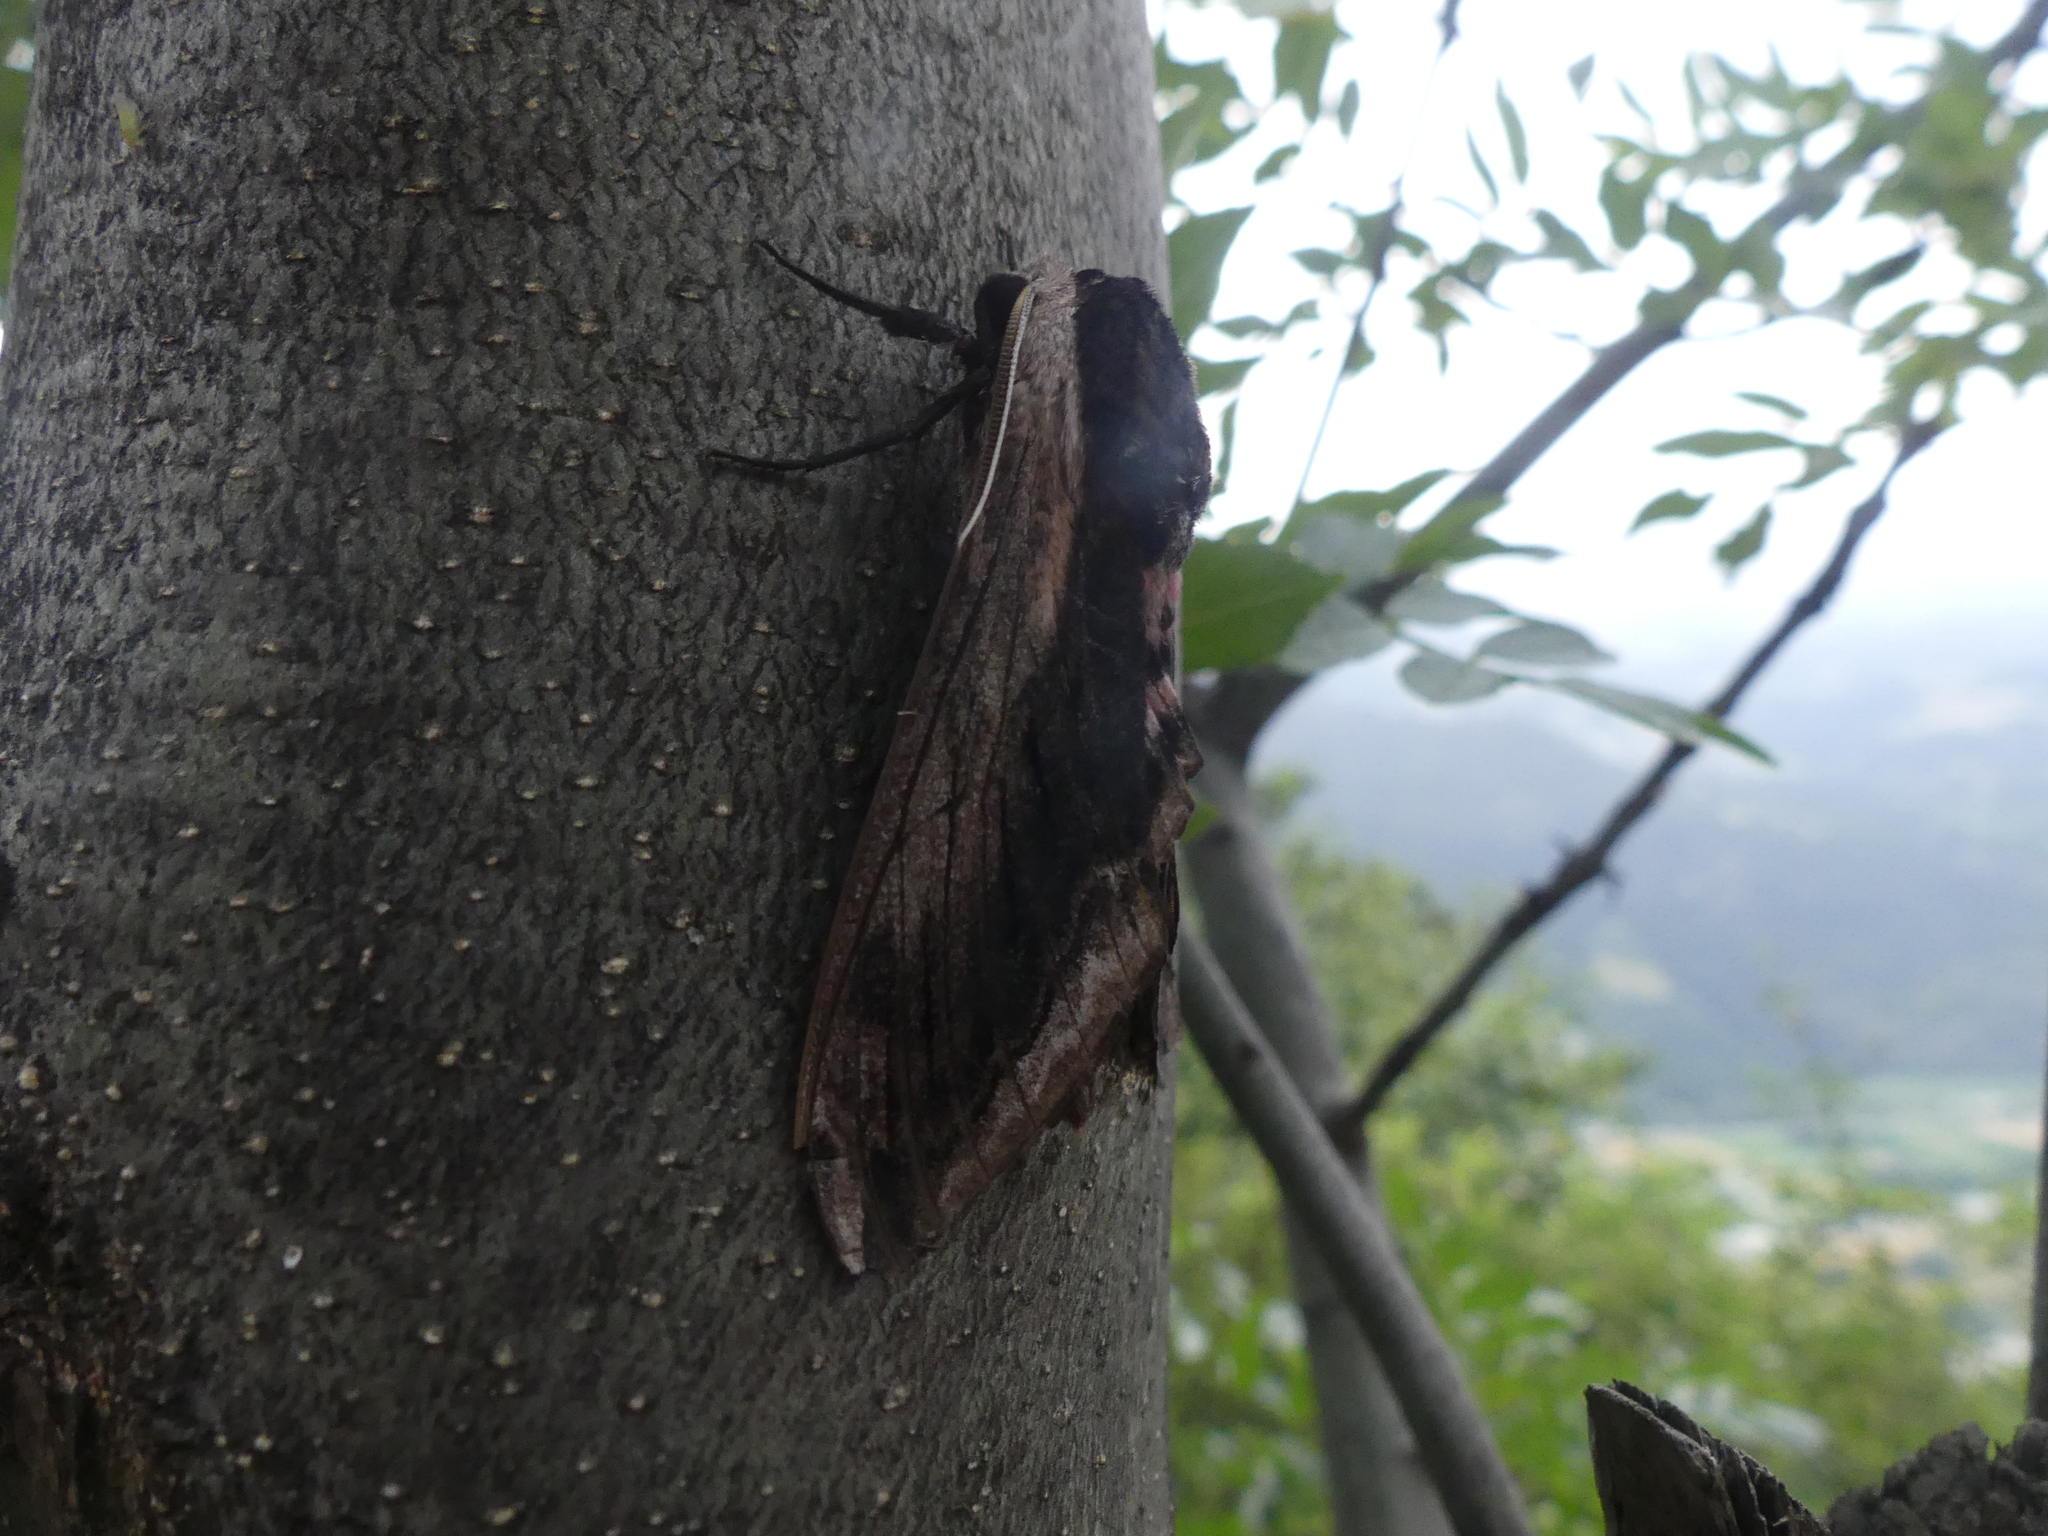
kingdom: Animalia
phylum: Arthropoda
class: Insecta
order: Lepidoptera
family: Sphingidae
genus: Sphinx
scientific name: Sphinx ligustri
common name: Privet hawk-moth
